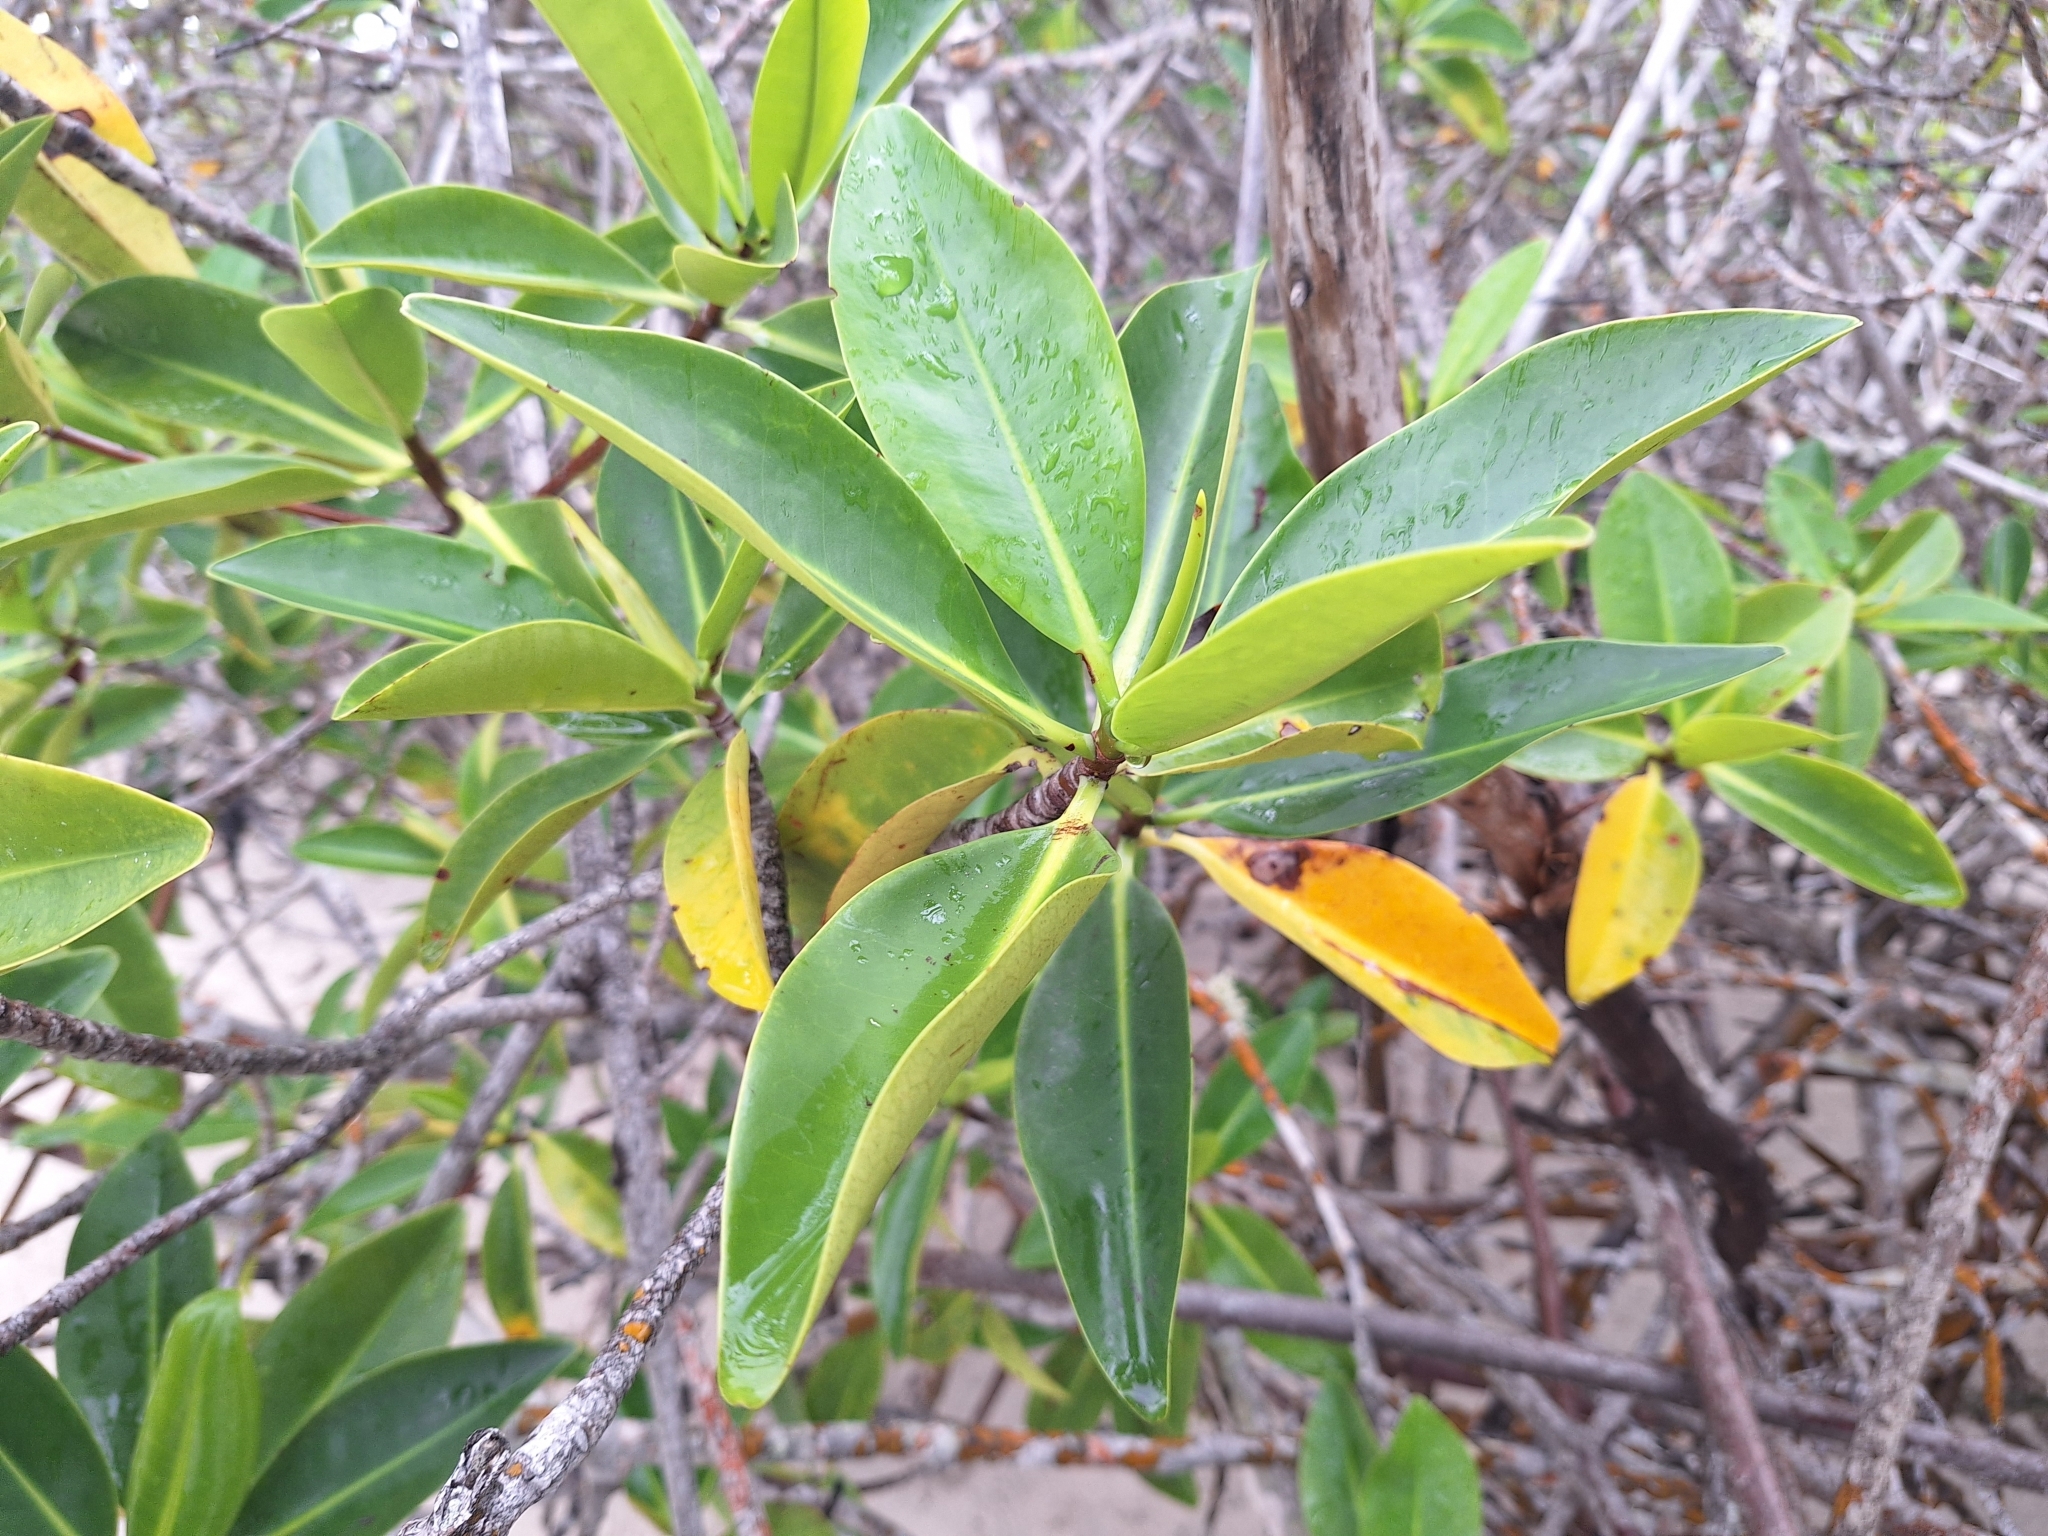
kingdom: Plantae
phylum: Tracheophyta
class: Magnoliopsida
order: Malpighiales
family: Rhizophoraceae
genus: Rhizophora
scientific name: Rhizophora mangle
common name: Red mangrove
